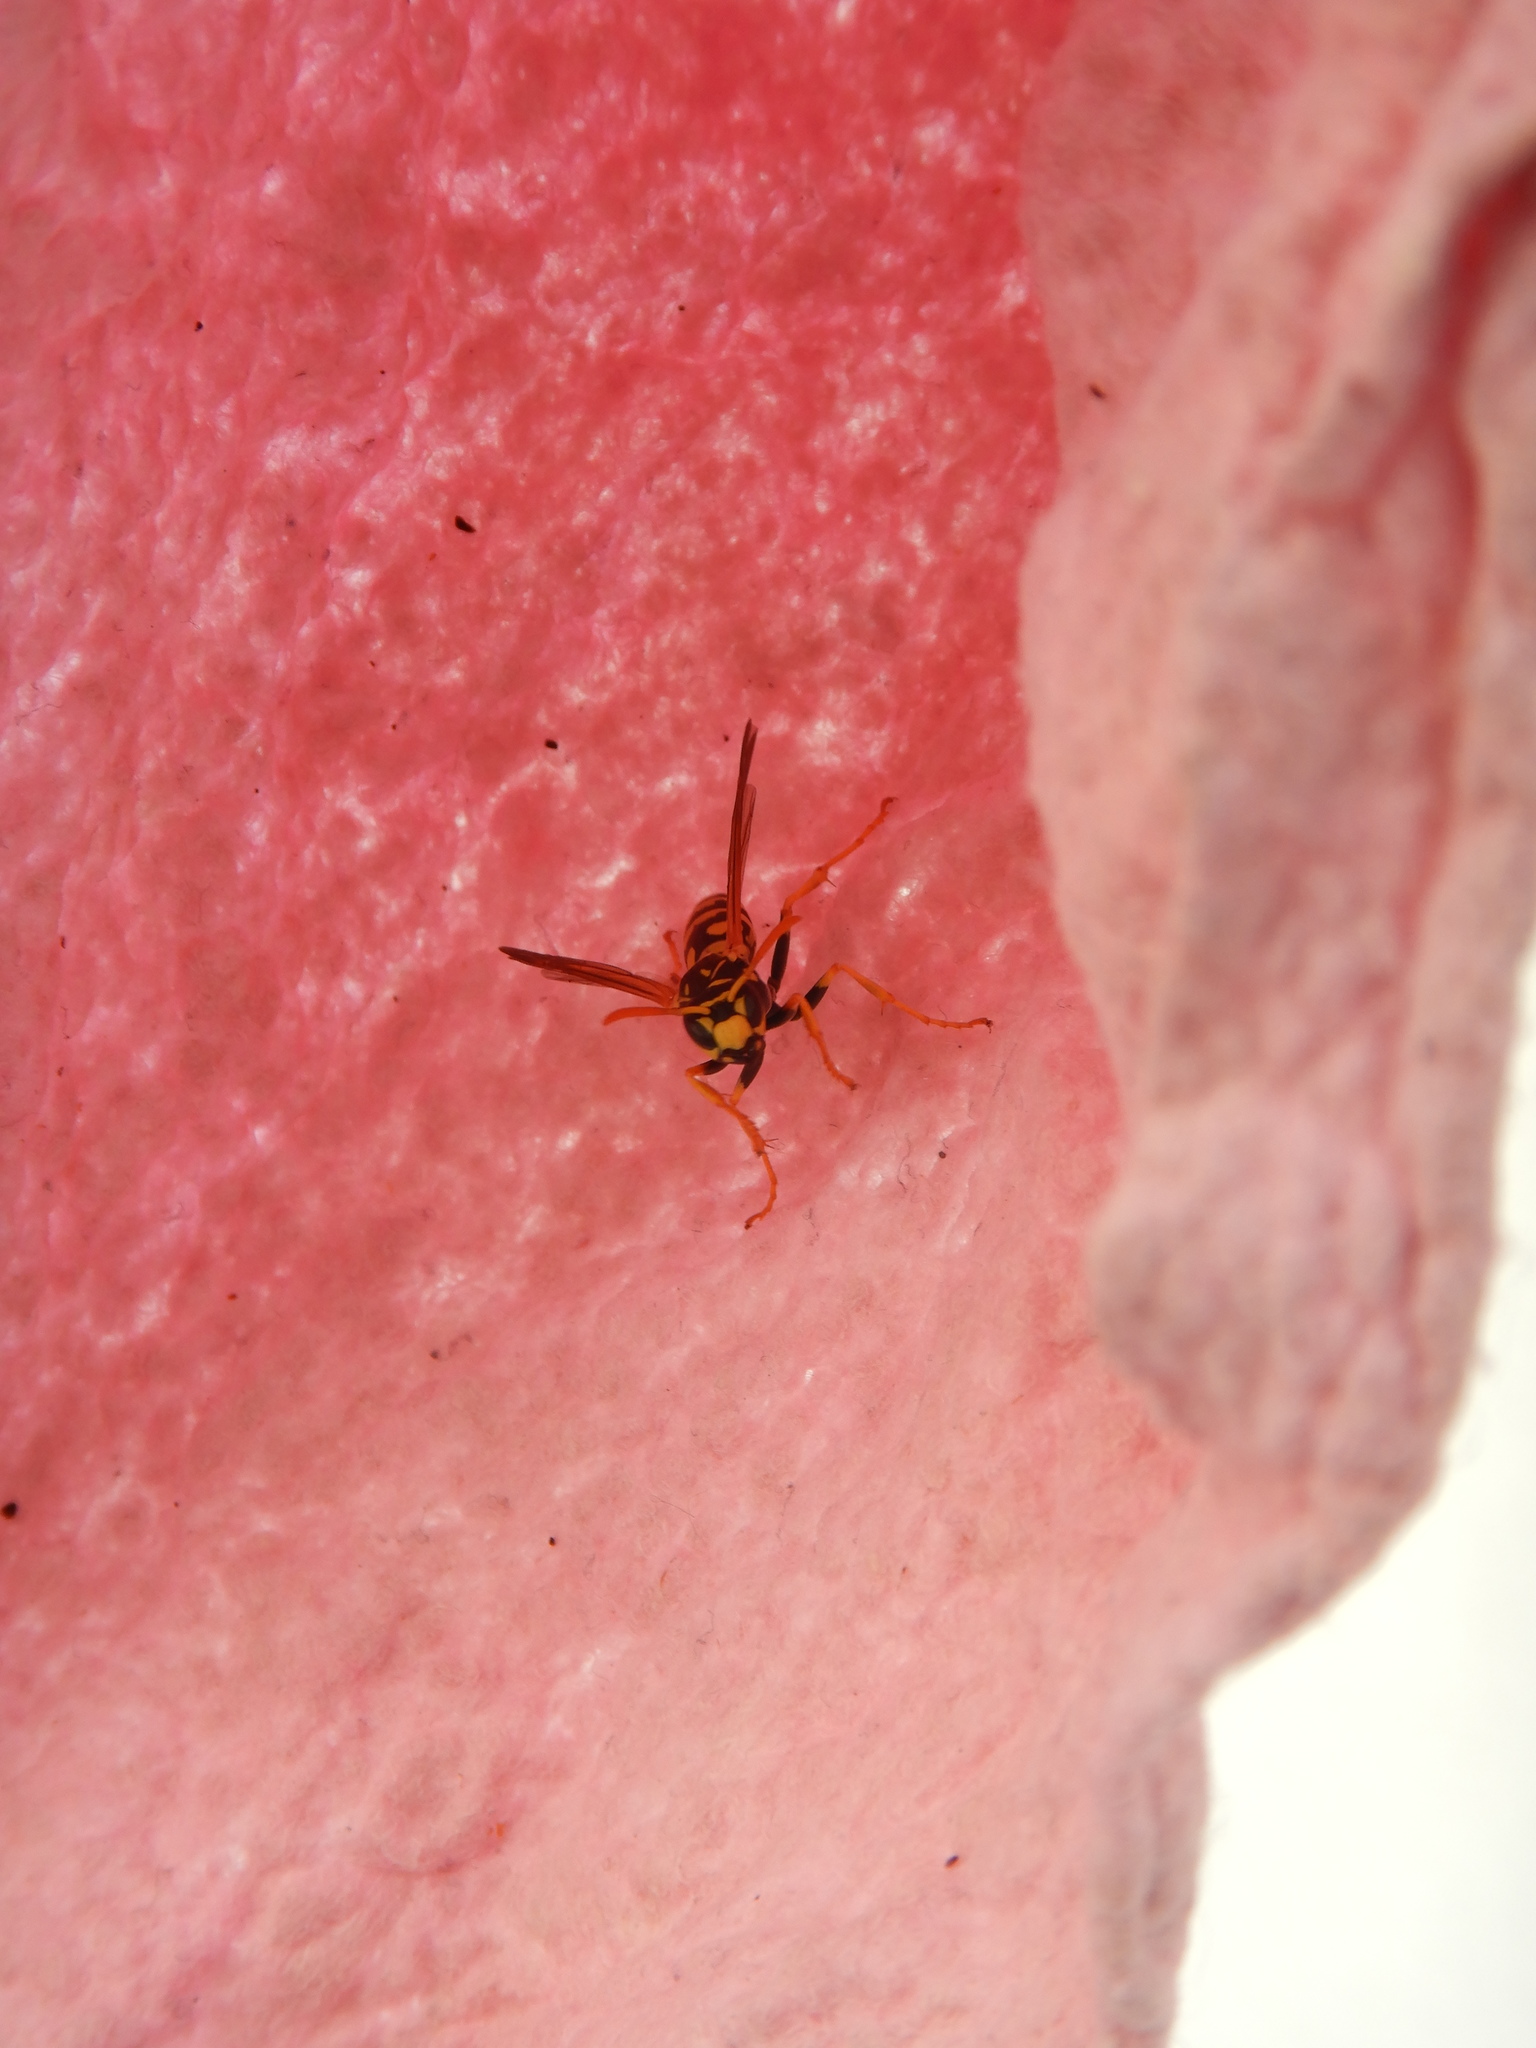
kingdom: Animalia
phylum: Arthropoda
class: Insecta
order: Hymenoptera
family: Eumenidae
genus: Polistes
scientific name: Polistes dominula
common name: Paper wasp
